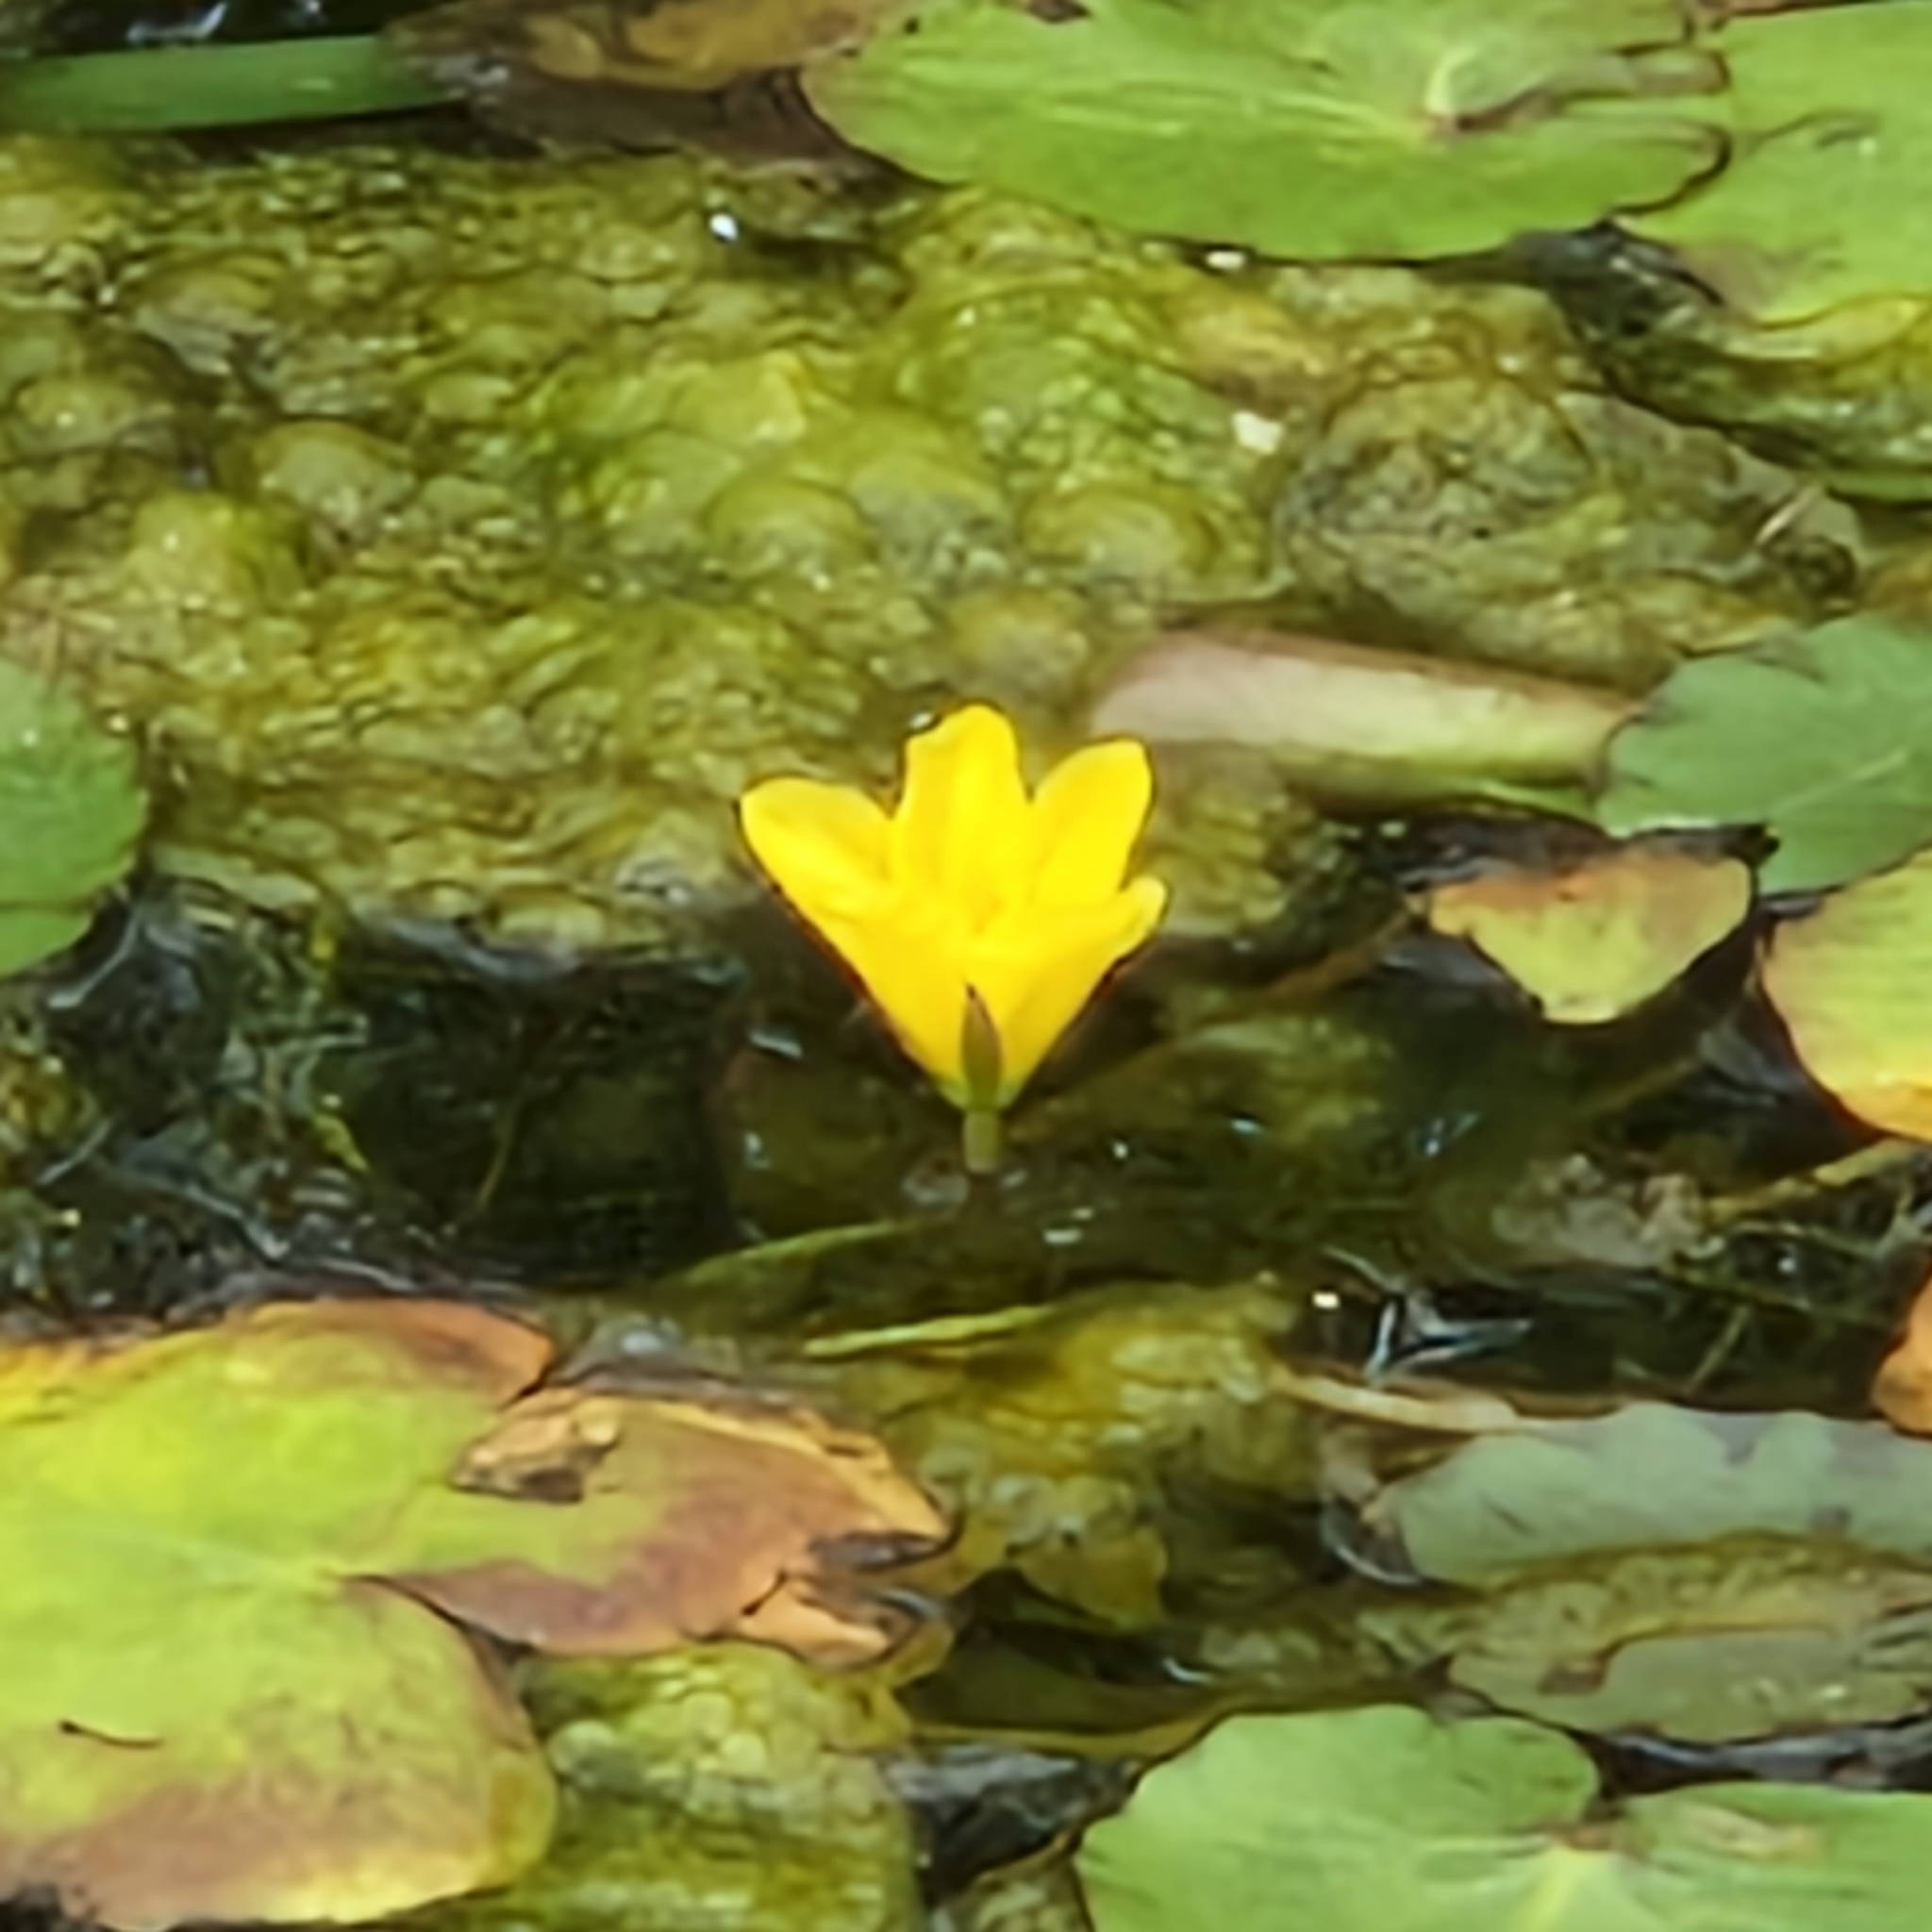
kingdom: Plantae
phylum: Tracheophyta
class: Magnoliopsida
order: Asterales
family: Menyanthaceae
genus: Nymphoides
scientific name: Nymphoides peltata
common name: Fringed water-lily
